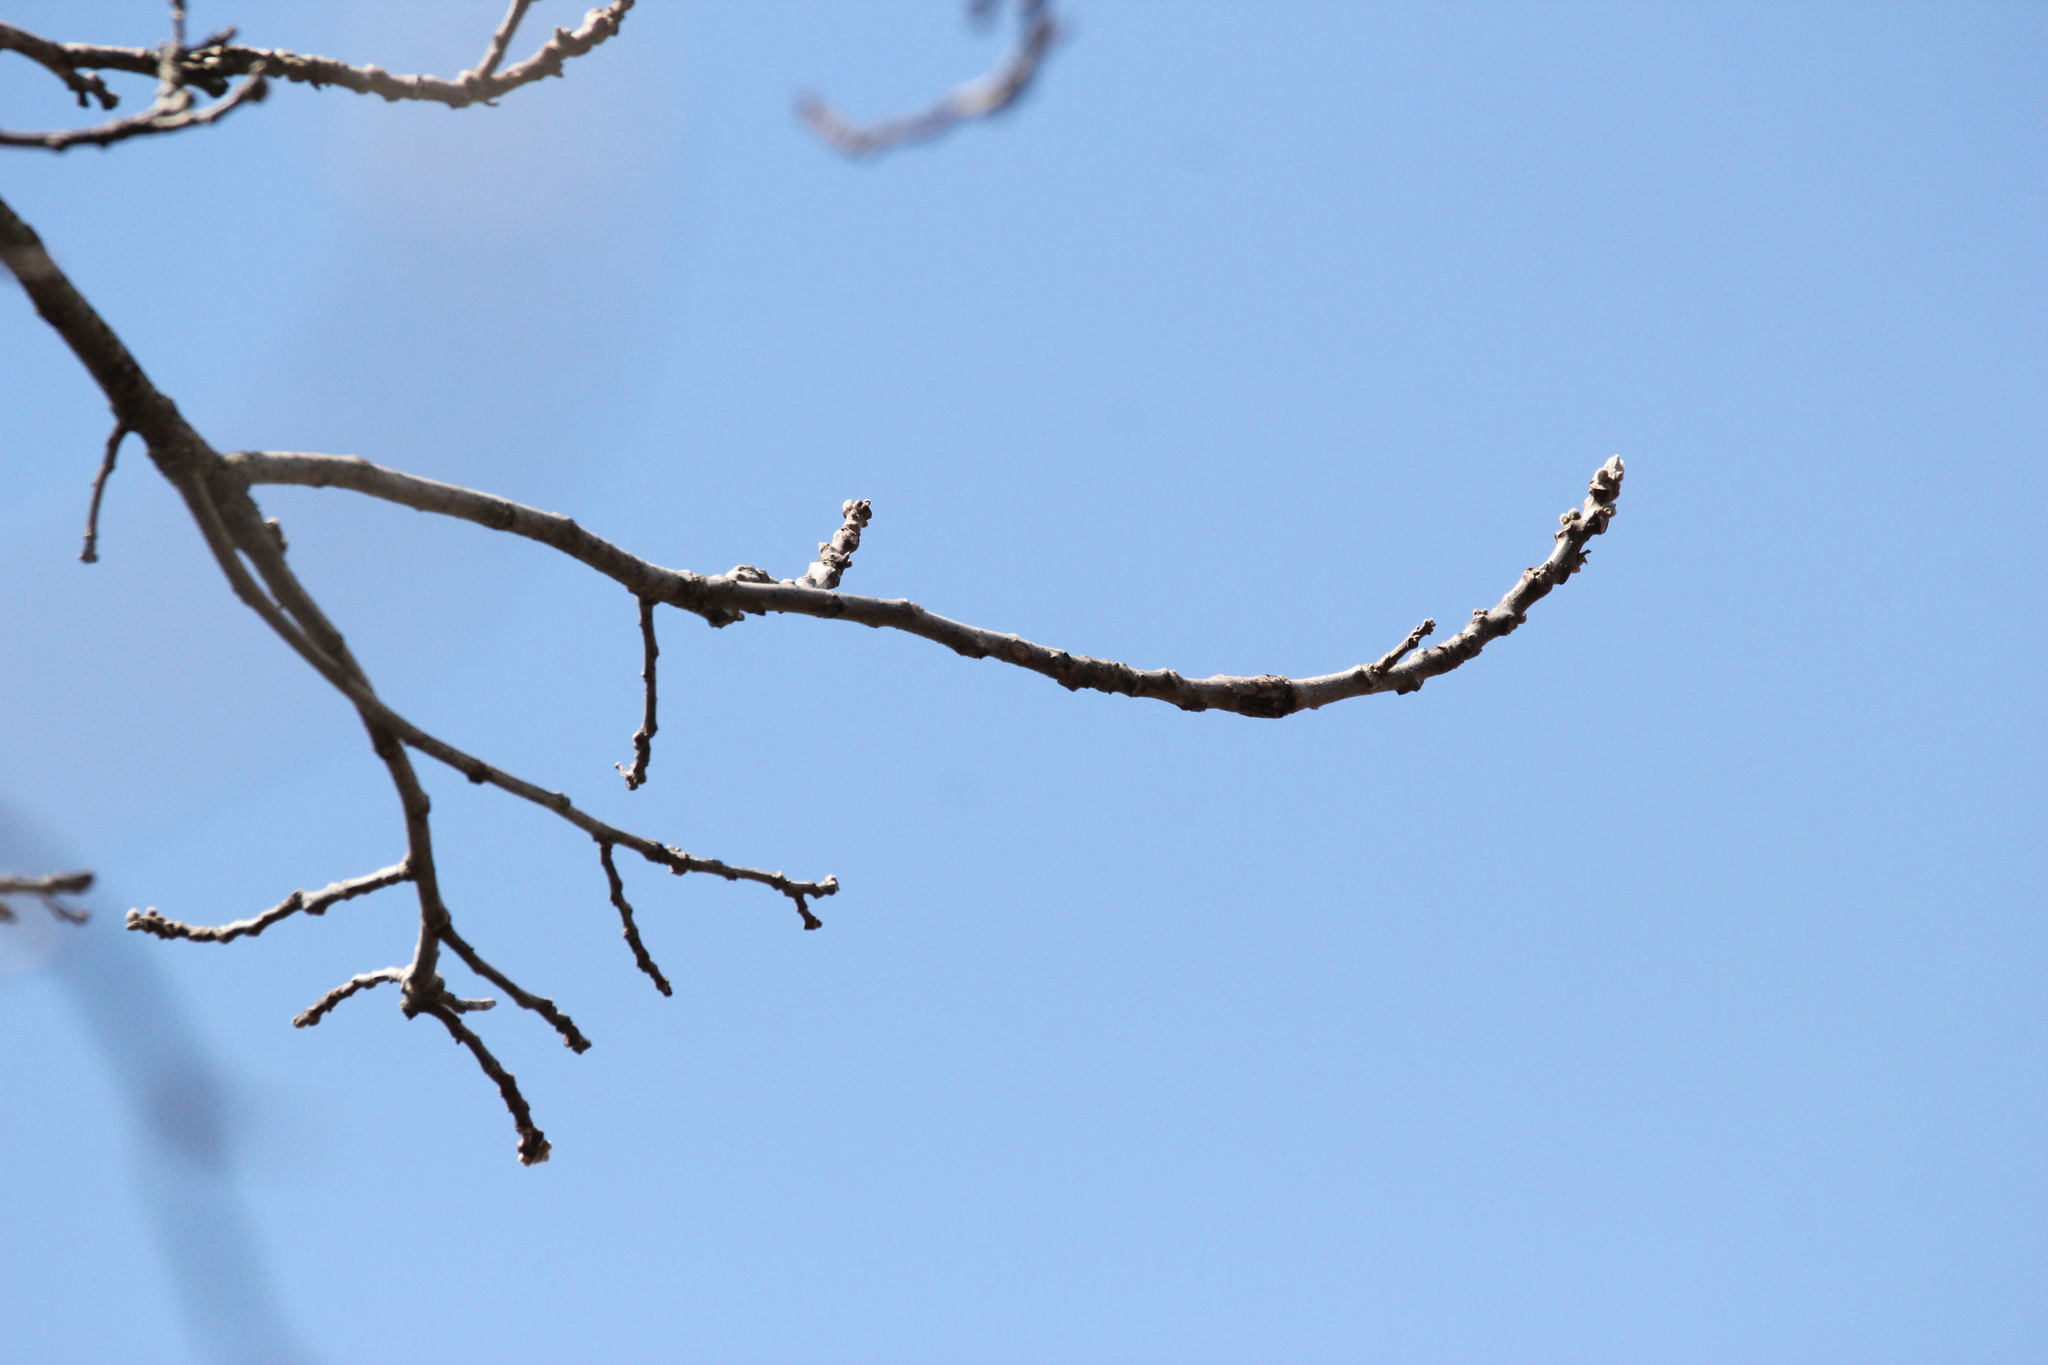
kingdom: Plantae
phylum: Tracheophyta
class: Magnoliopsida
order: Fagales
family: Juglandaceae
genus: Juglans
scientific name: Juglans nigra
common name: Black walnut
